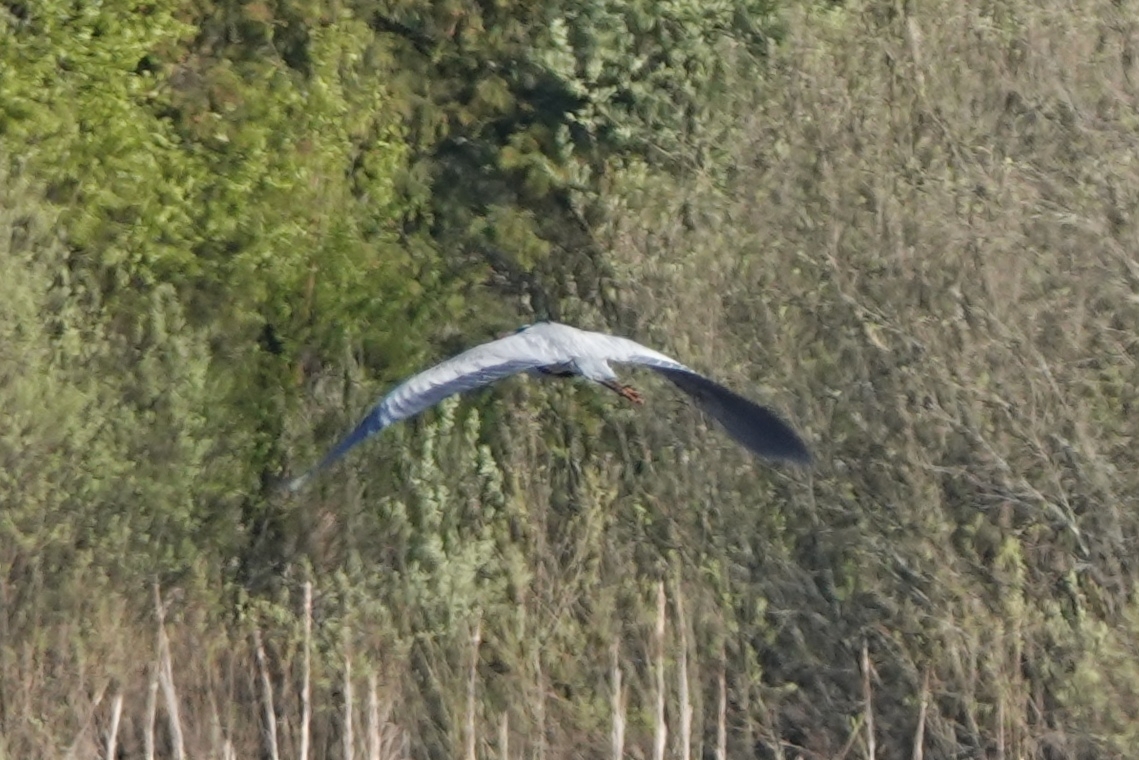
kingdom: Animalia
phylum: Chordata
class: Aves
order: Pelecaniformes
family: Ardeidae
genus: Ardea
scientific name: Ardea cinerea
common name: Grey heron
